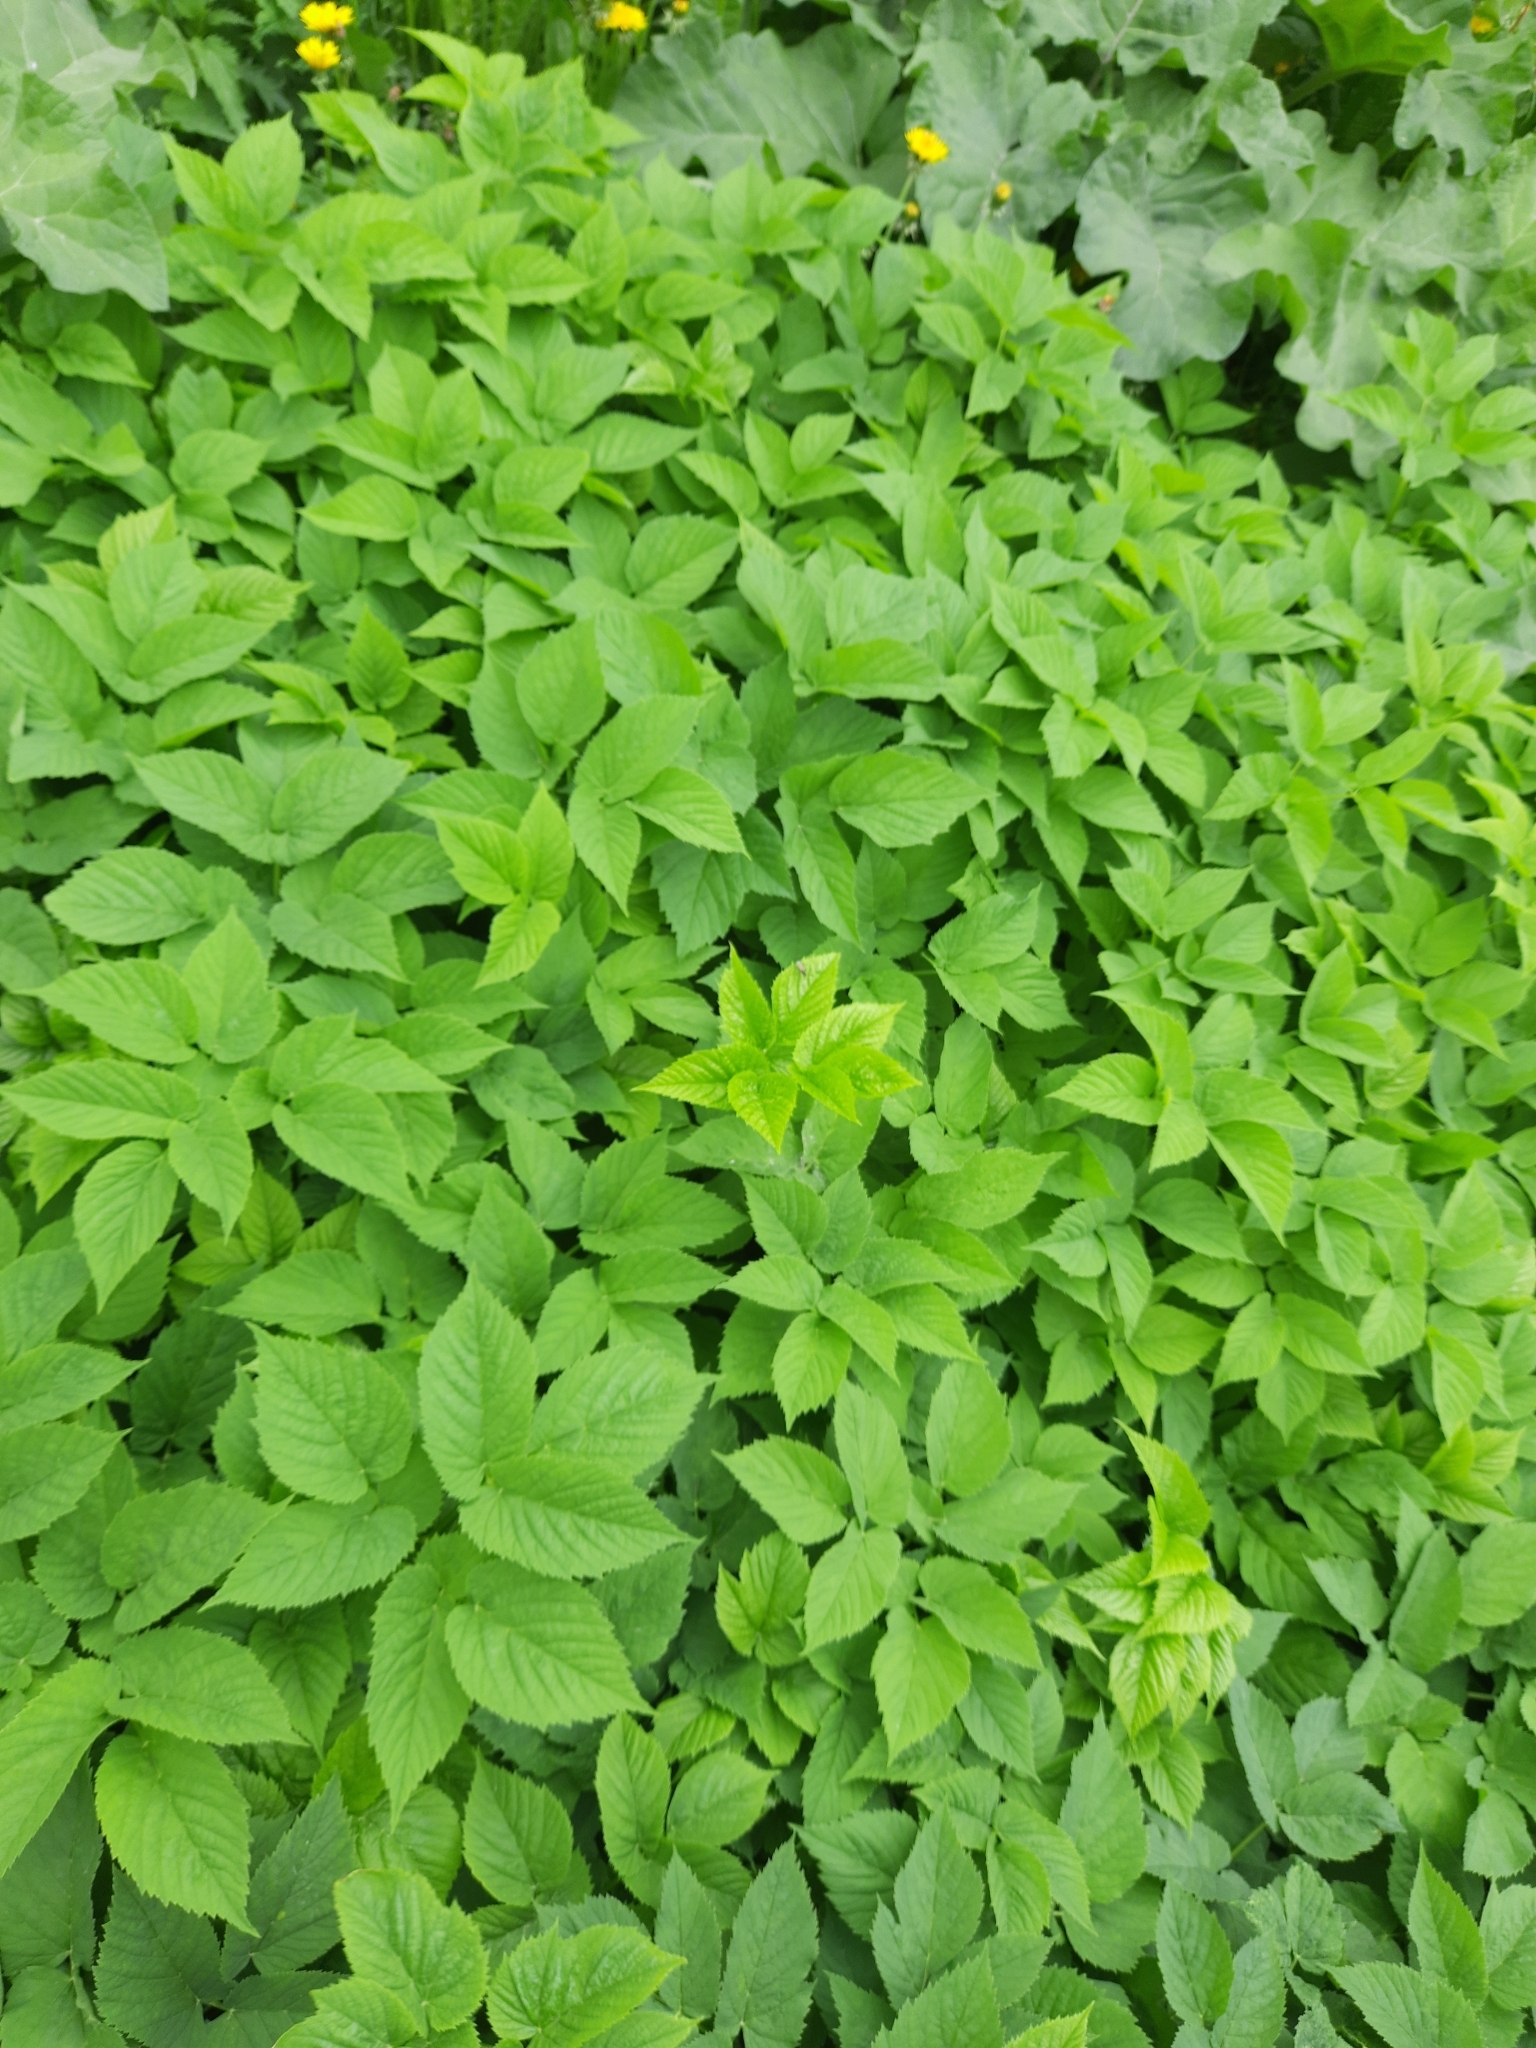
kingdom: Plantae
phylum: Tracheophyta
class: Magnoliopsida
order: Apiales
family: Apiaceae
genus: Aegopodium
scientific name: Aegopodium podagraria
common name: Ground-elder
